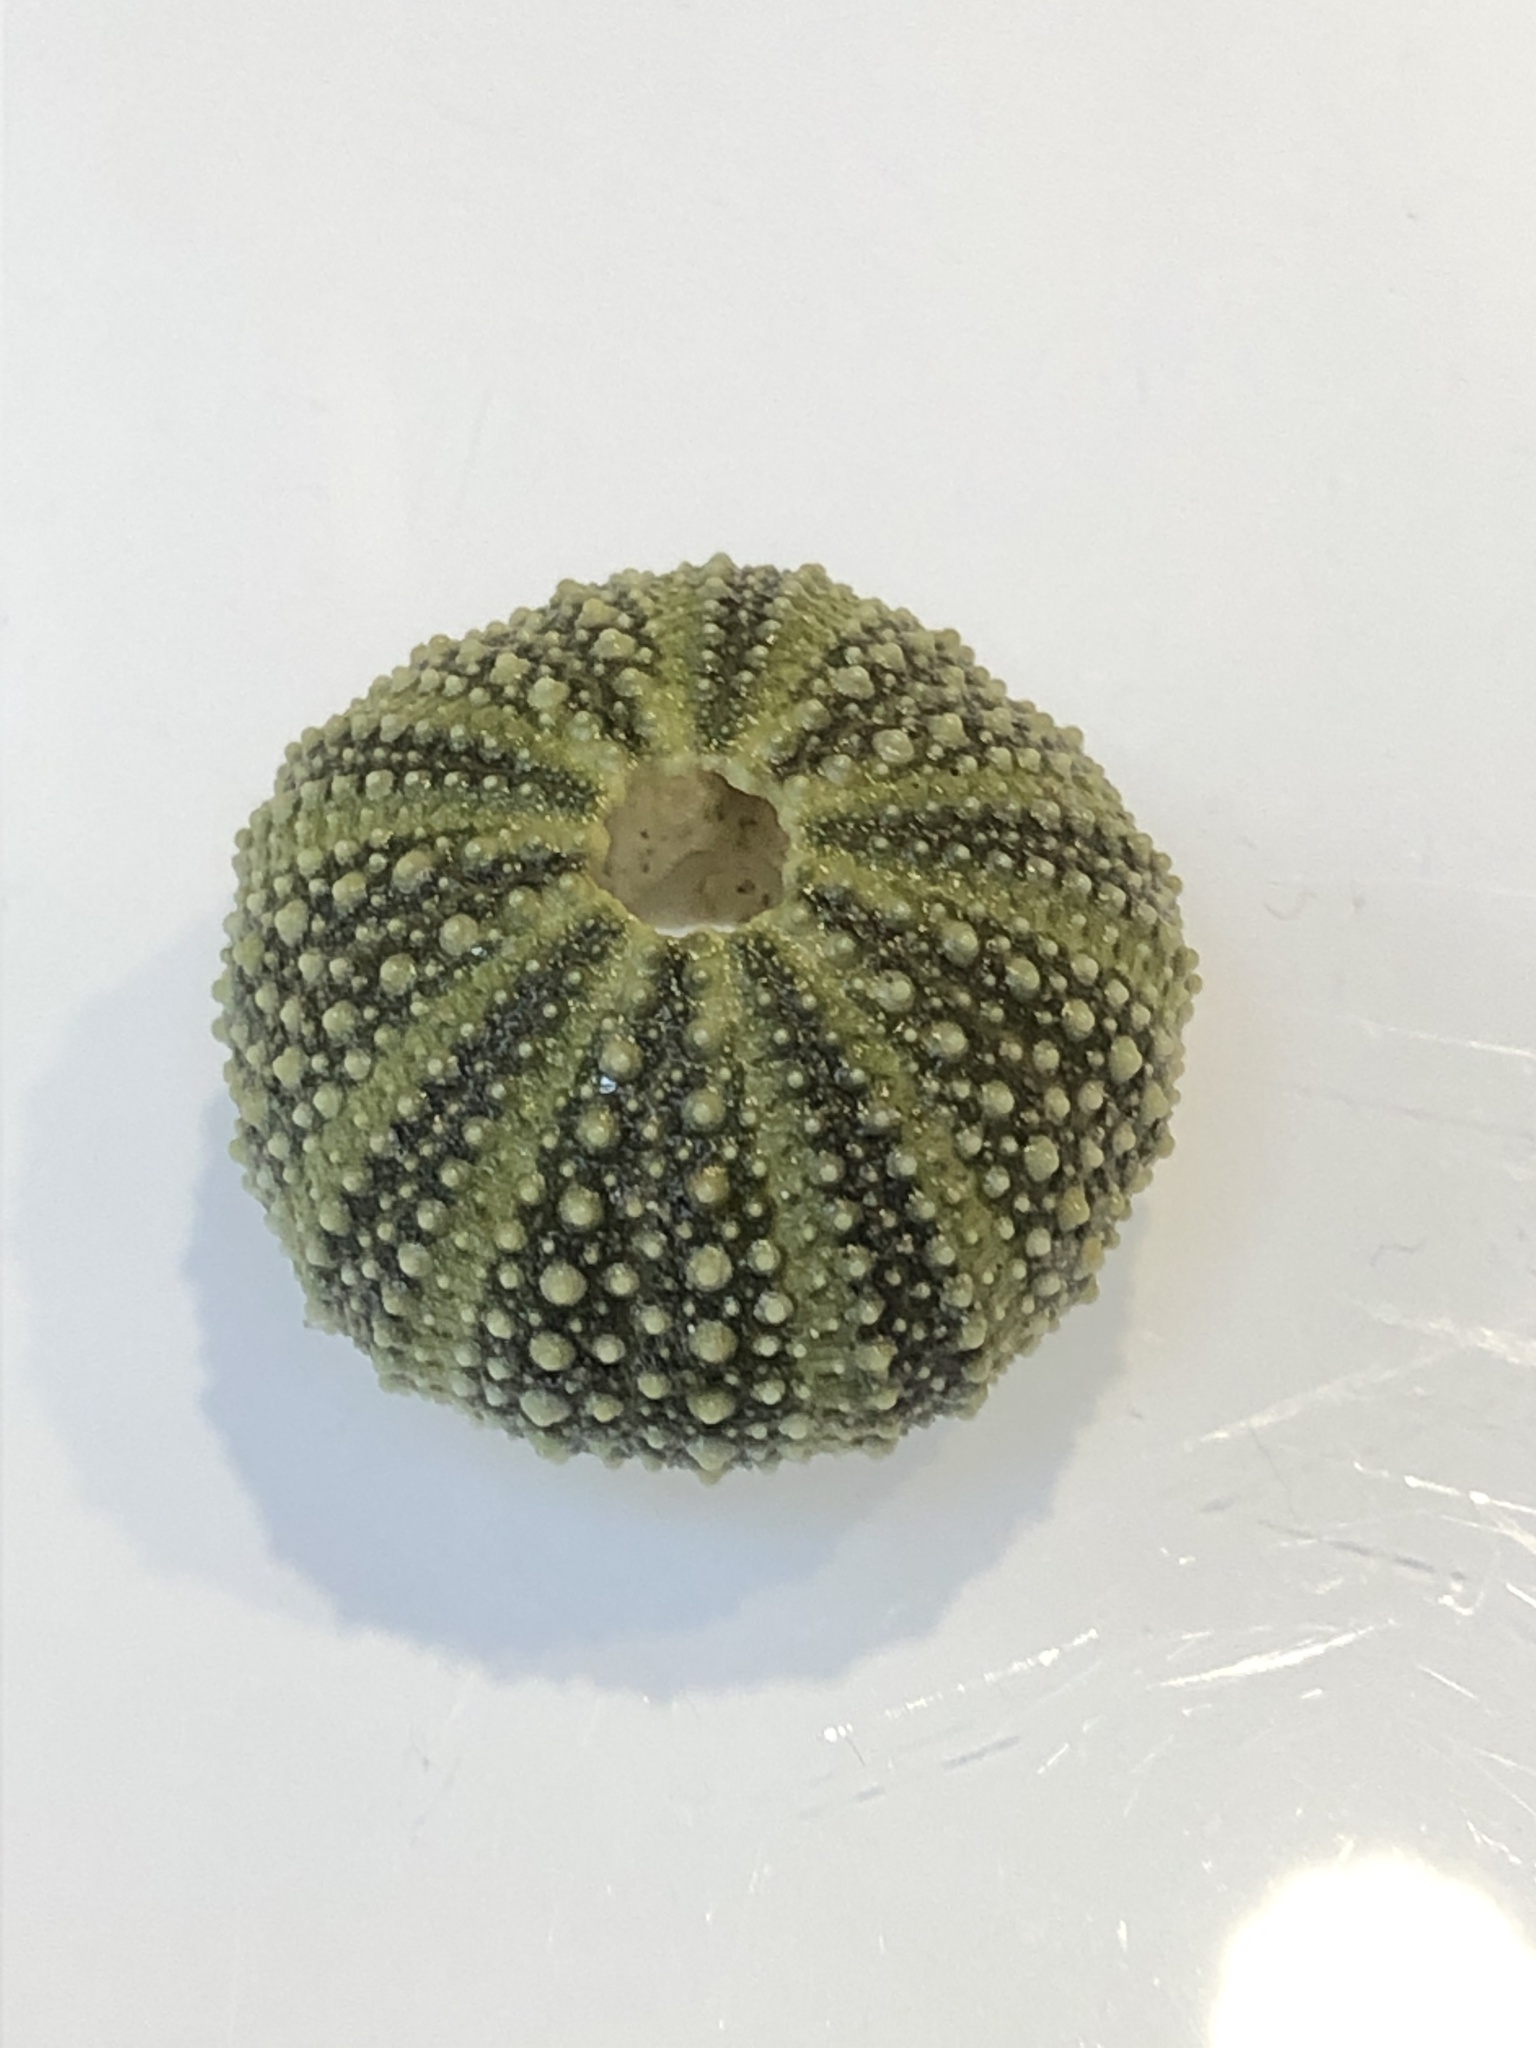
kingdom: Animalia
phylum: Echinodermata
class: Echinoidea
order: Camarodonta
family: Parechinidae
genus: Psammechinus
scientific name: Psammechinus miliaris
